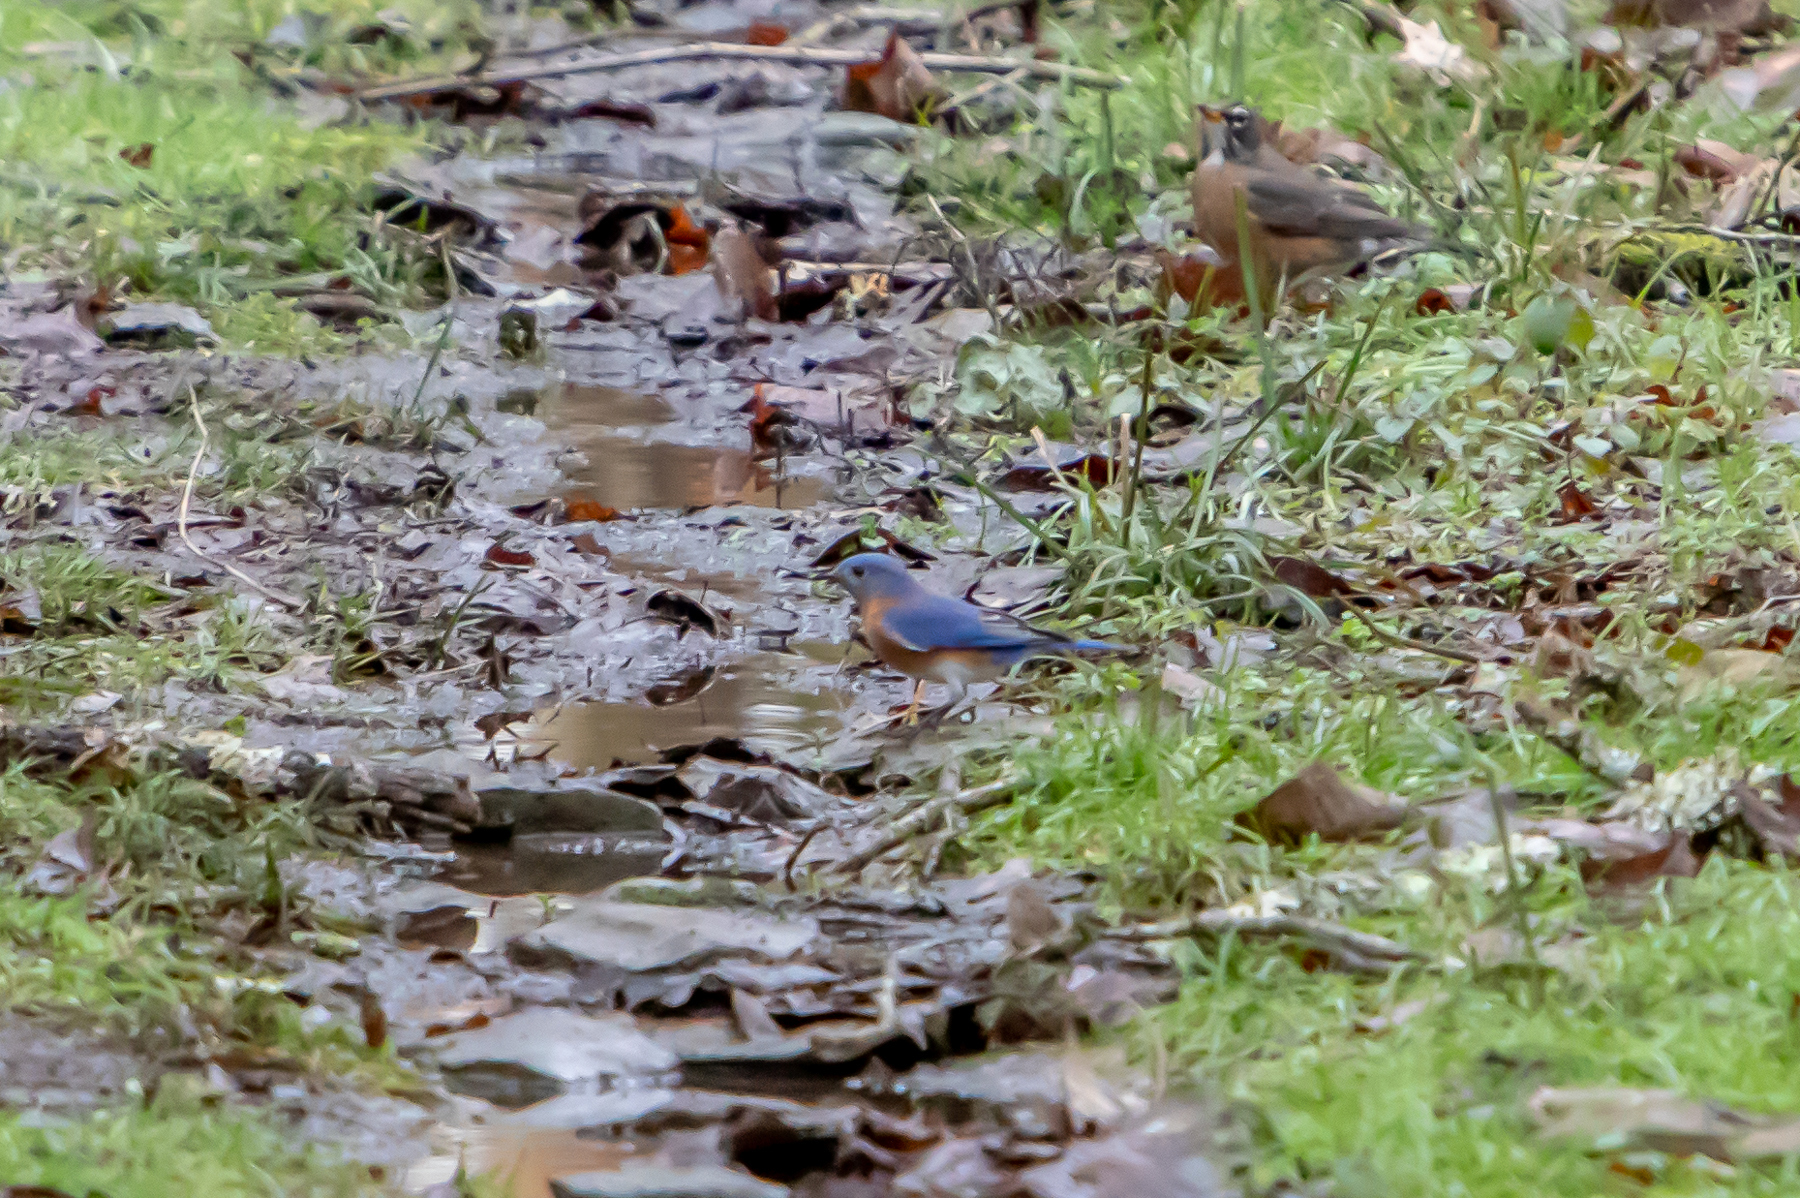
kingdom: Animalia
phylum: Chordata
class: Aves
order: Passeriformes
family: Turdidae
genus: Sialia
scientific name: Sialia sialis
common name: Eastern bluebird
